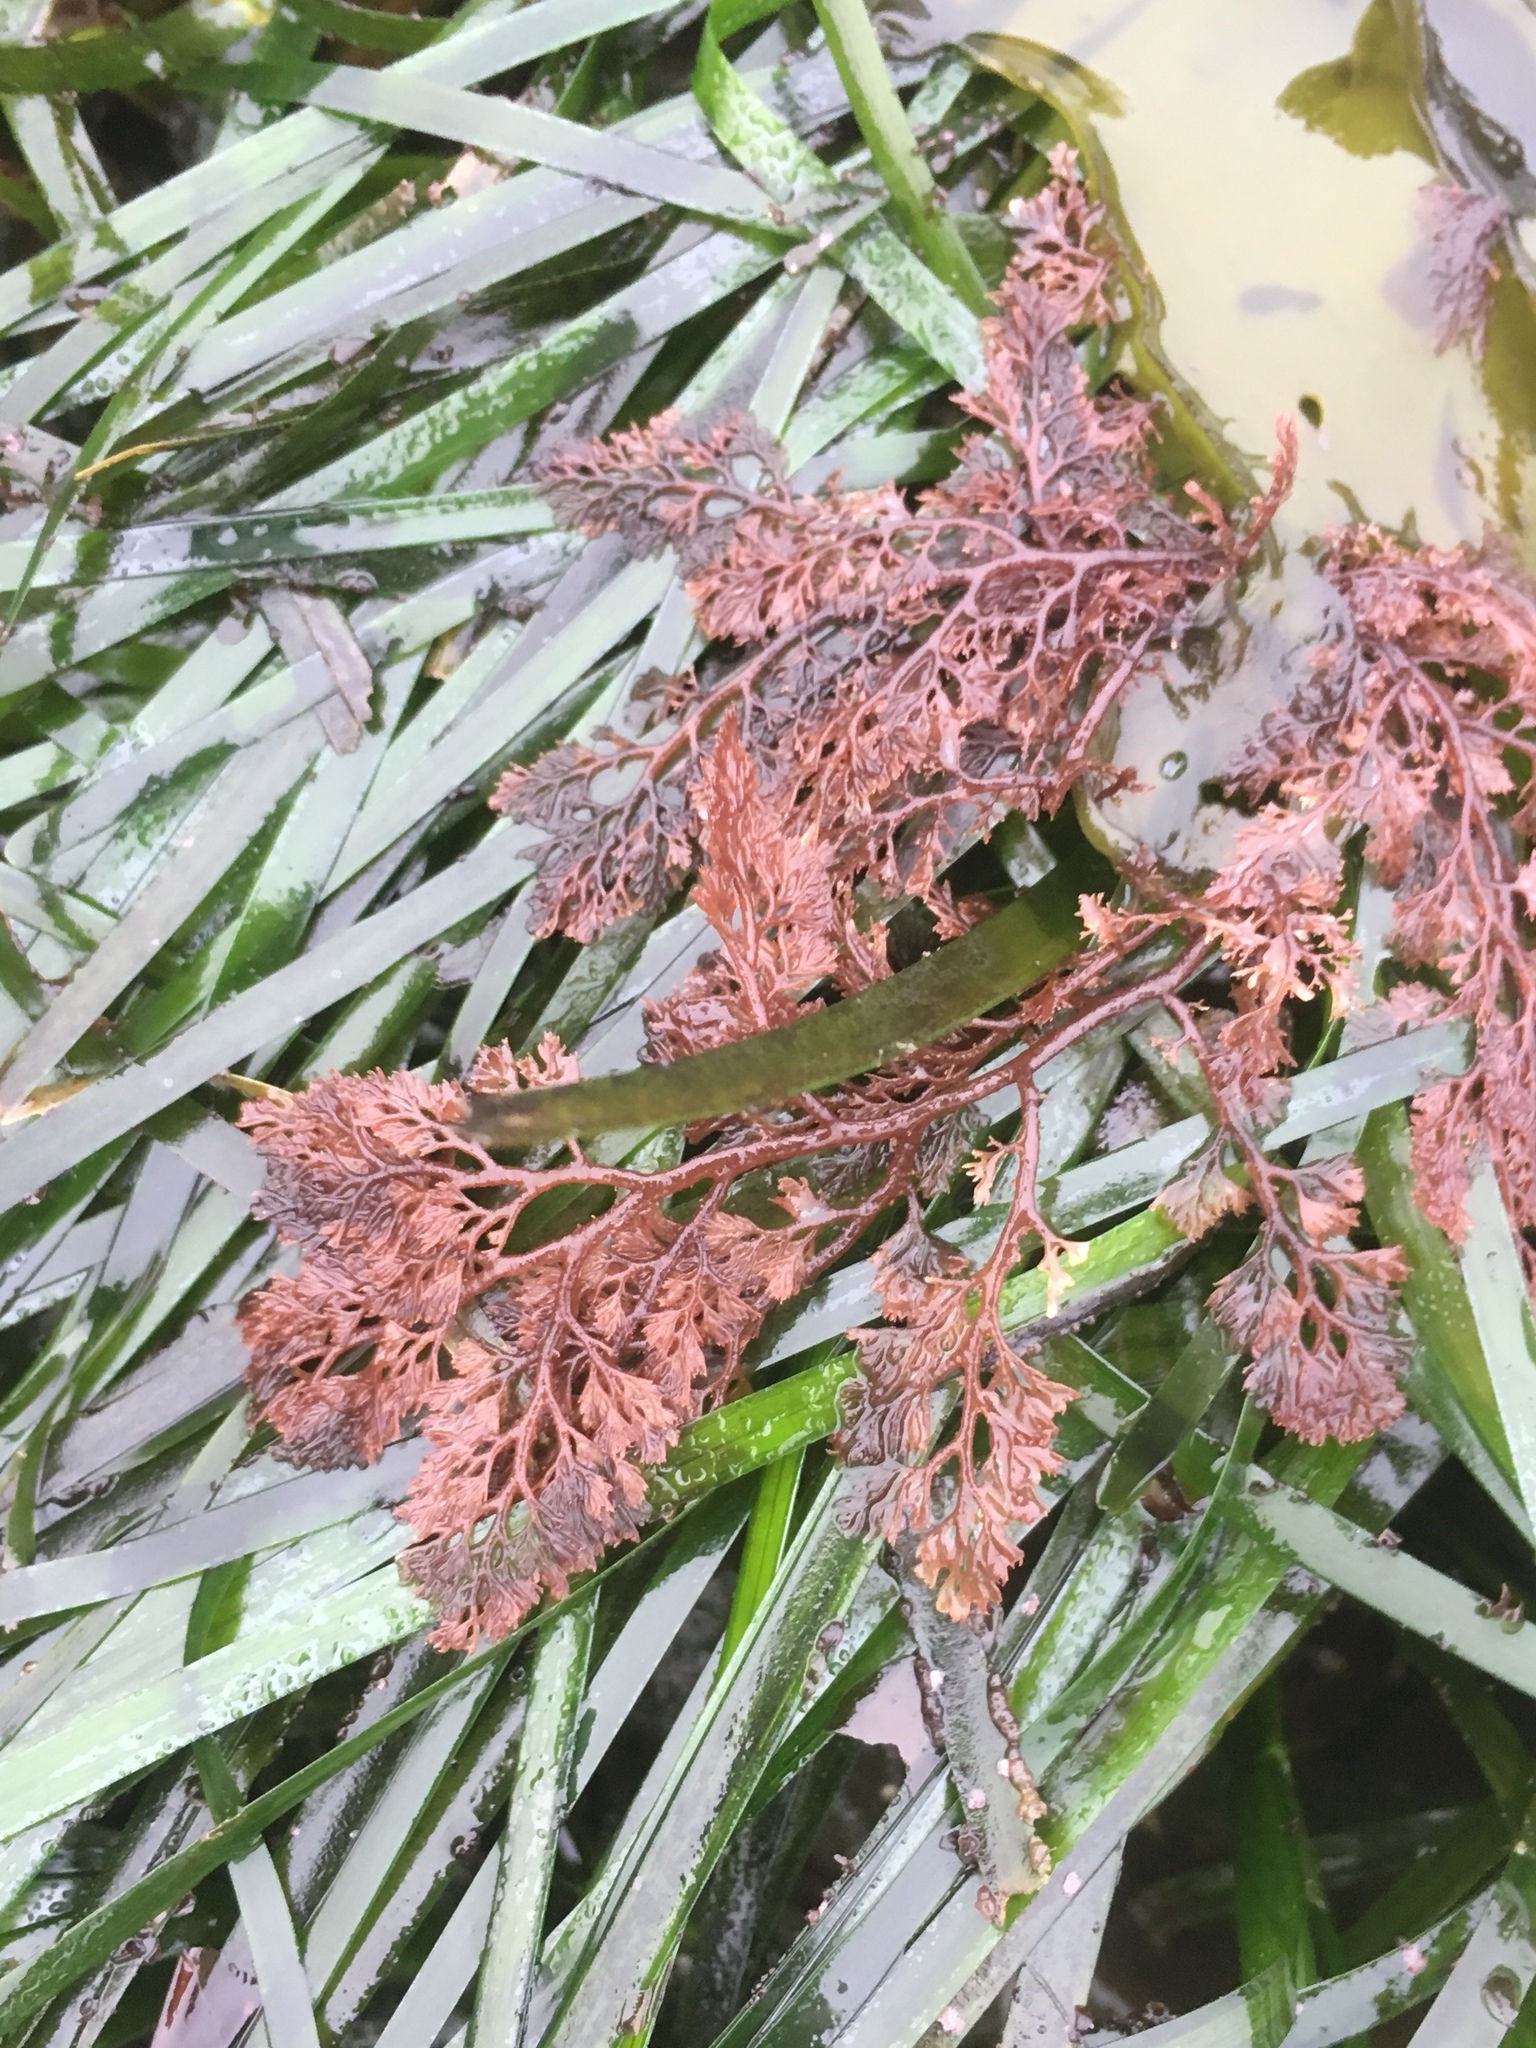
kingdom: Plantae
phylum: Rhodophyta
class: Florideophyceae
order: Ceramiales
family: Ceramiaceae
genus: Microcladia
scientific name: Microcladia coulteri
